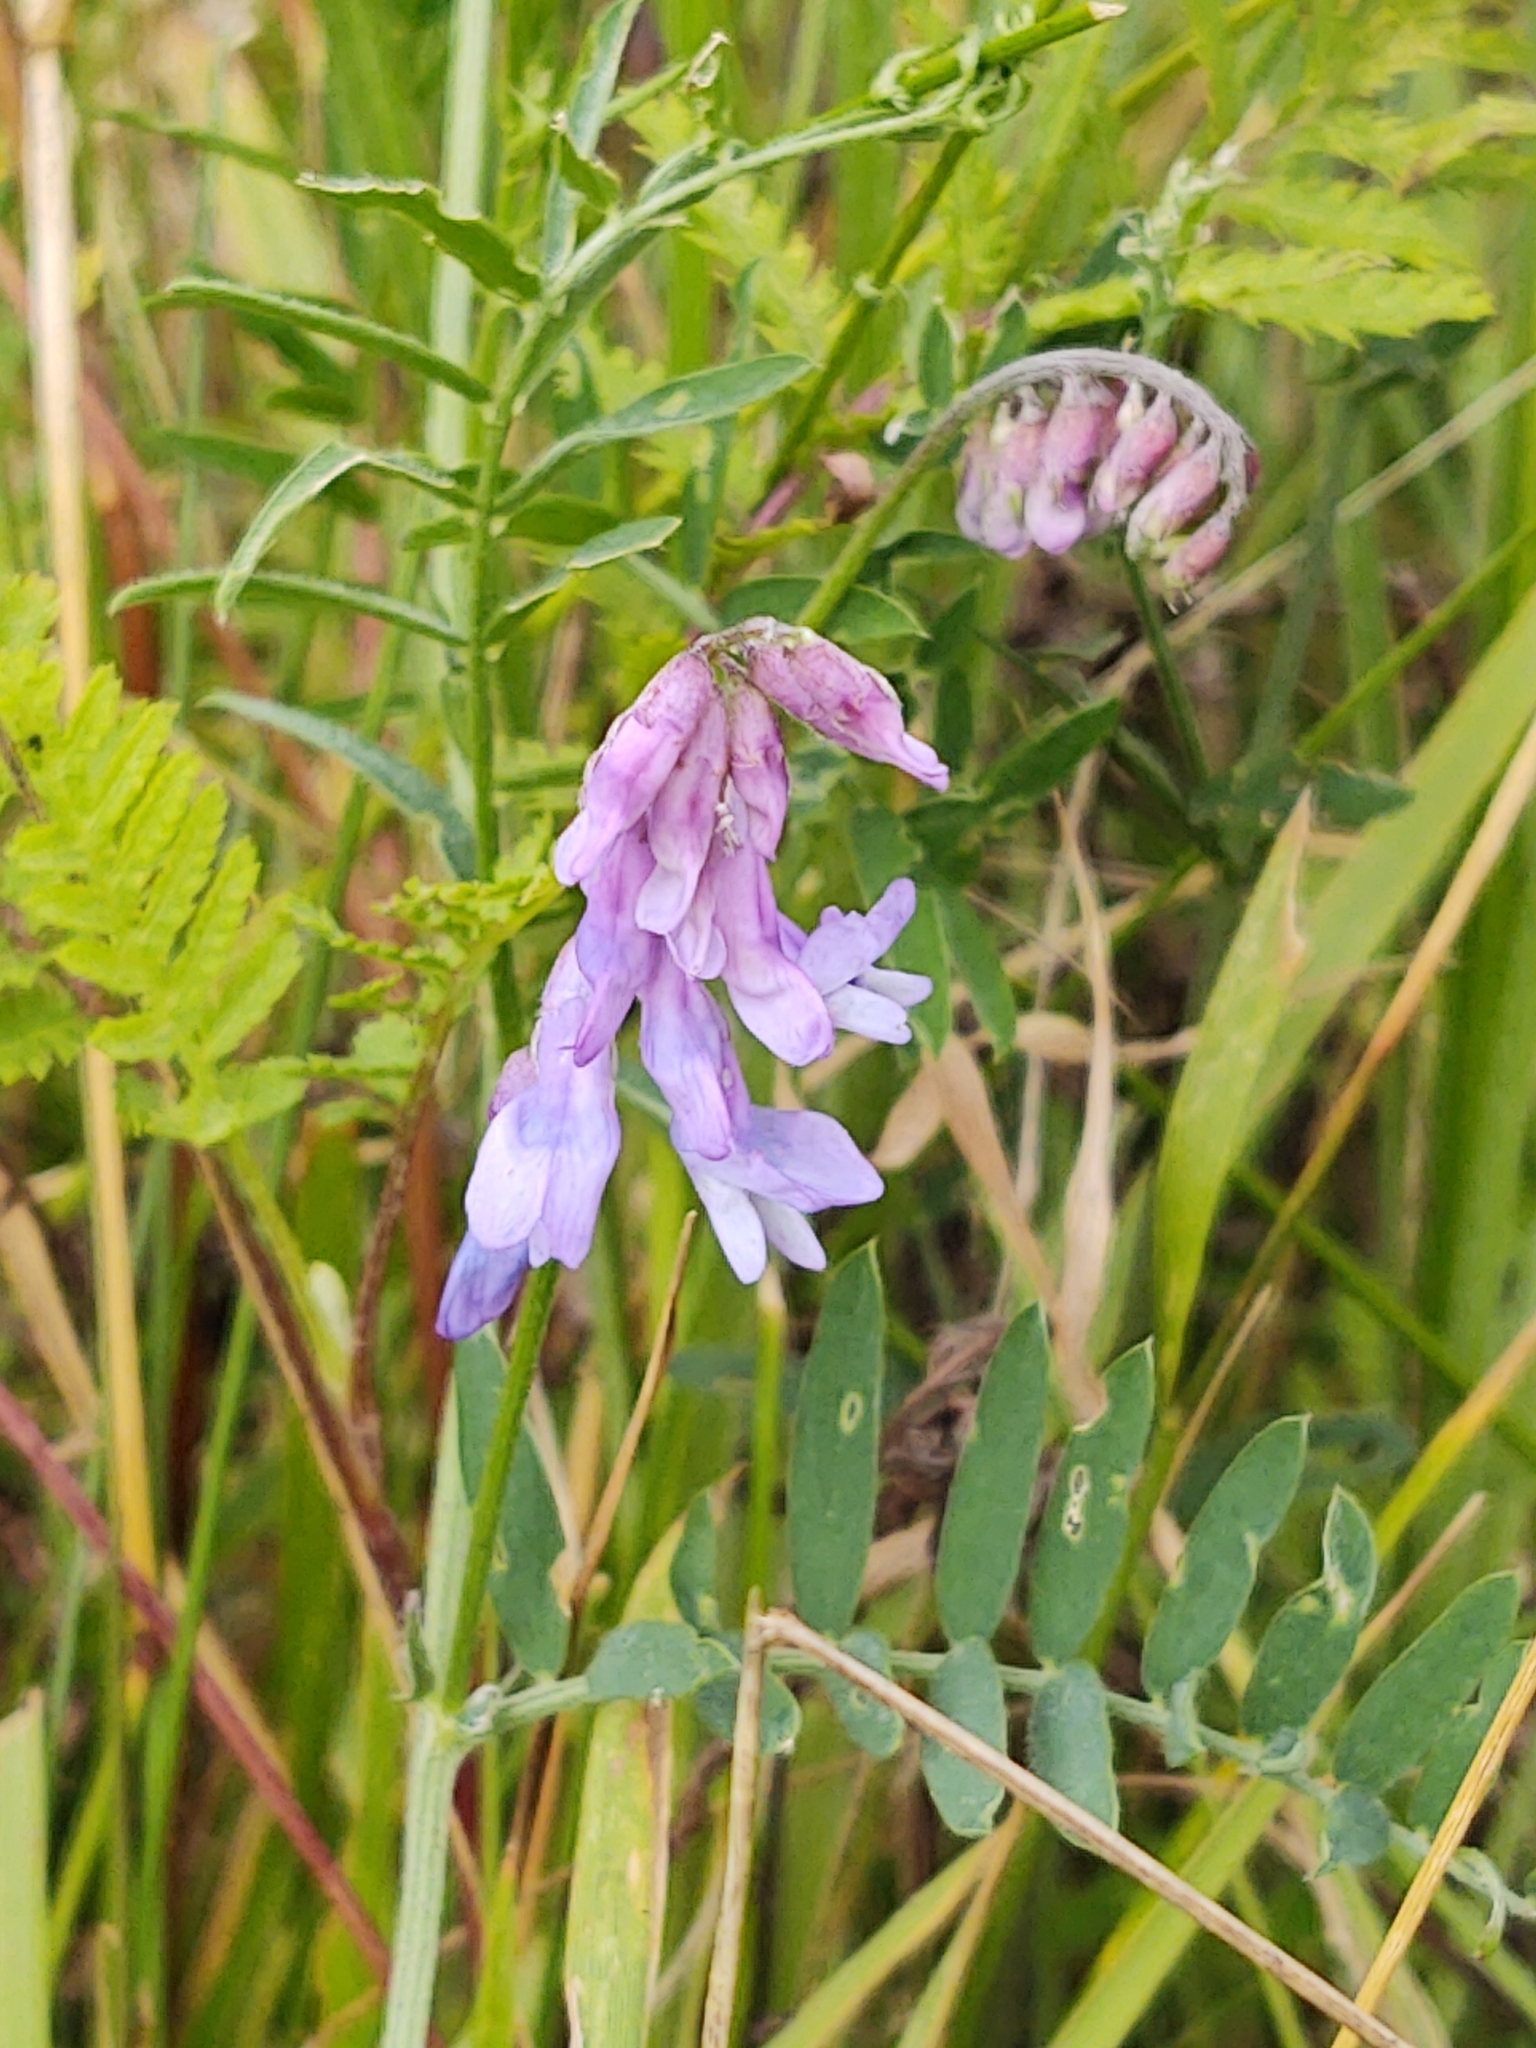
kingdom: Plantae
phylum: Tracheophyta
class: Magnoliopsida
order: Fabales
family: Fabaceae
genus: Vicia
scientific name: Vicia cracca
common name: Bird vetch
